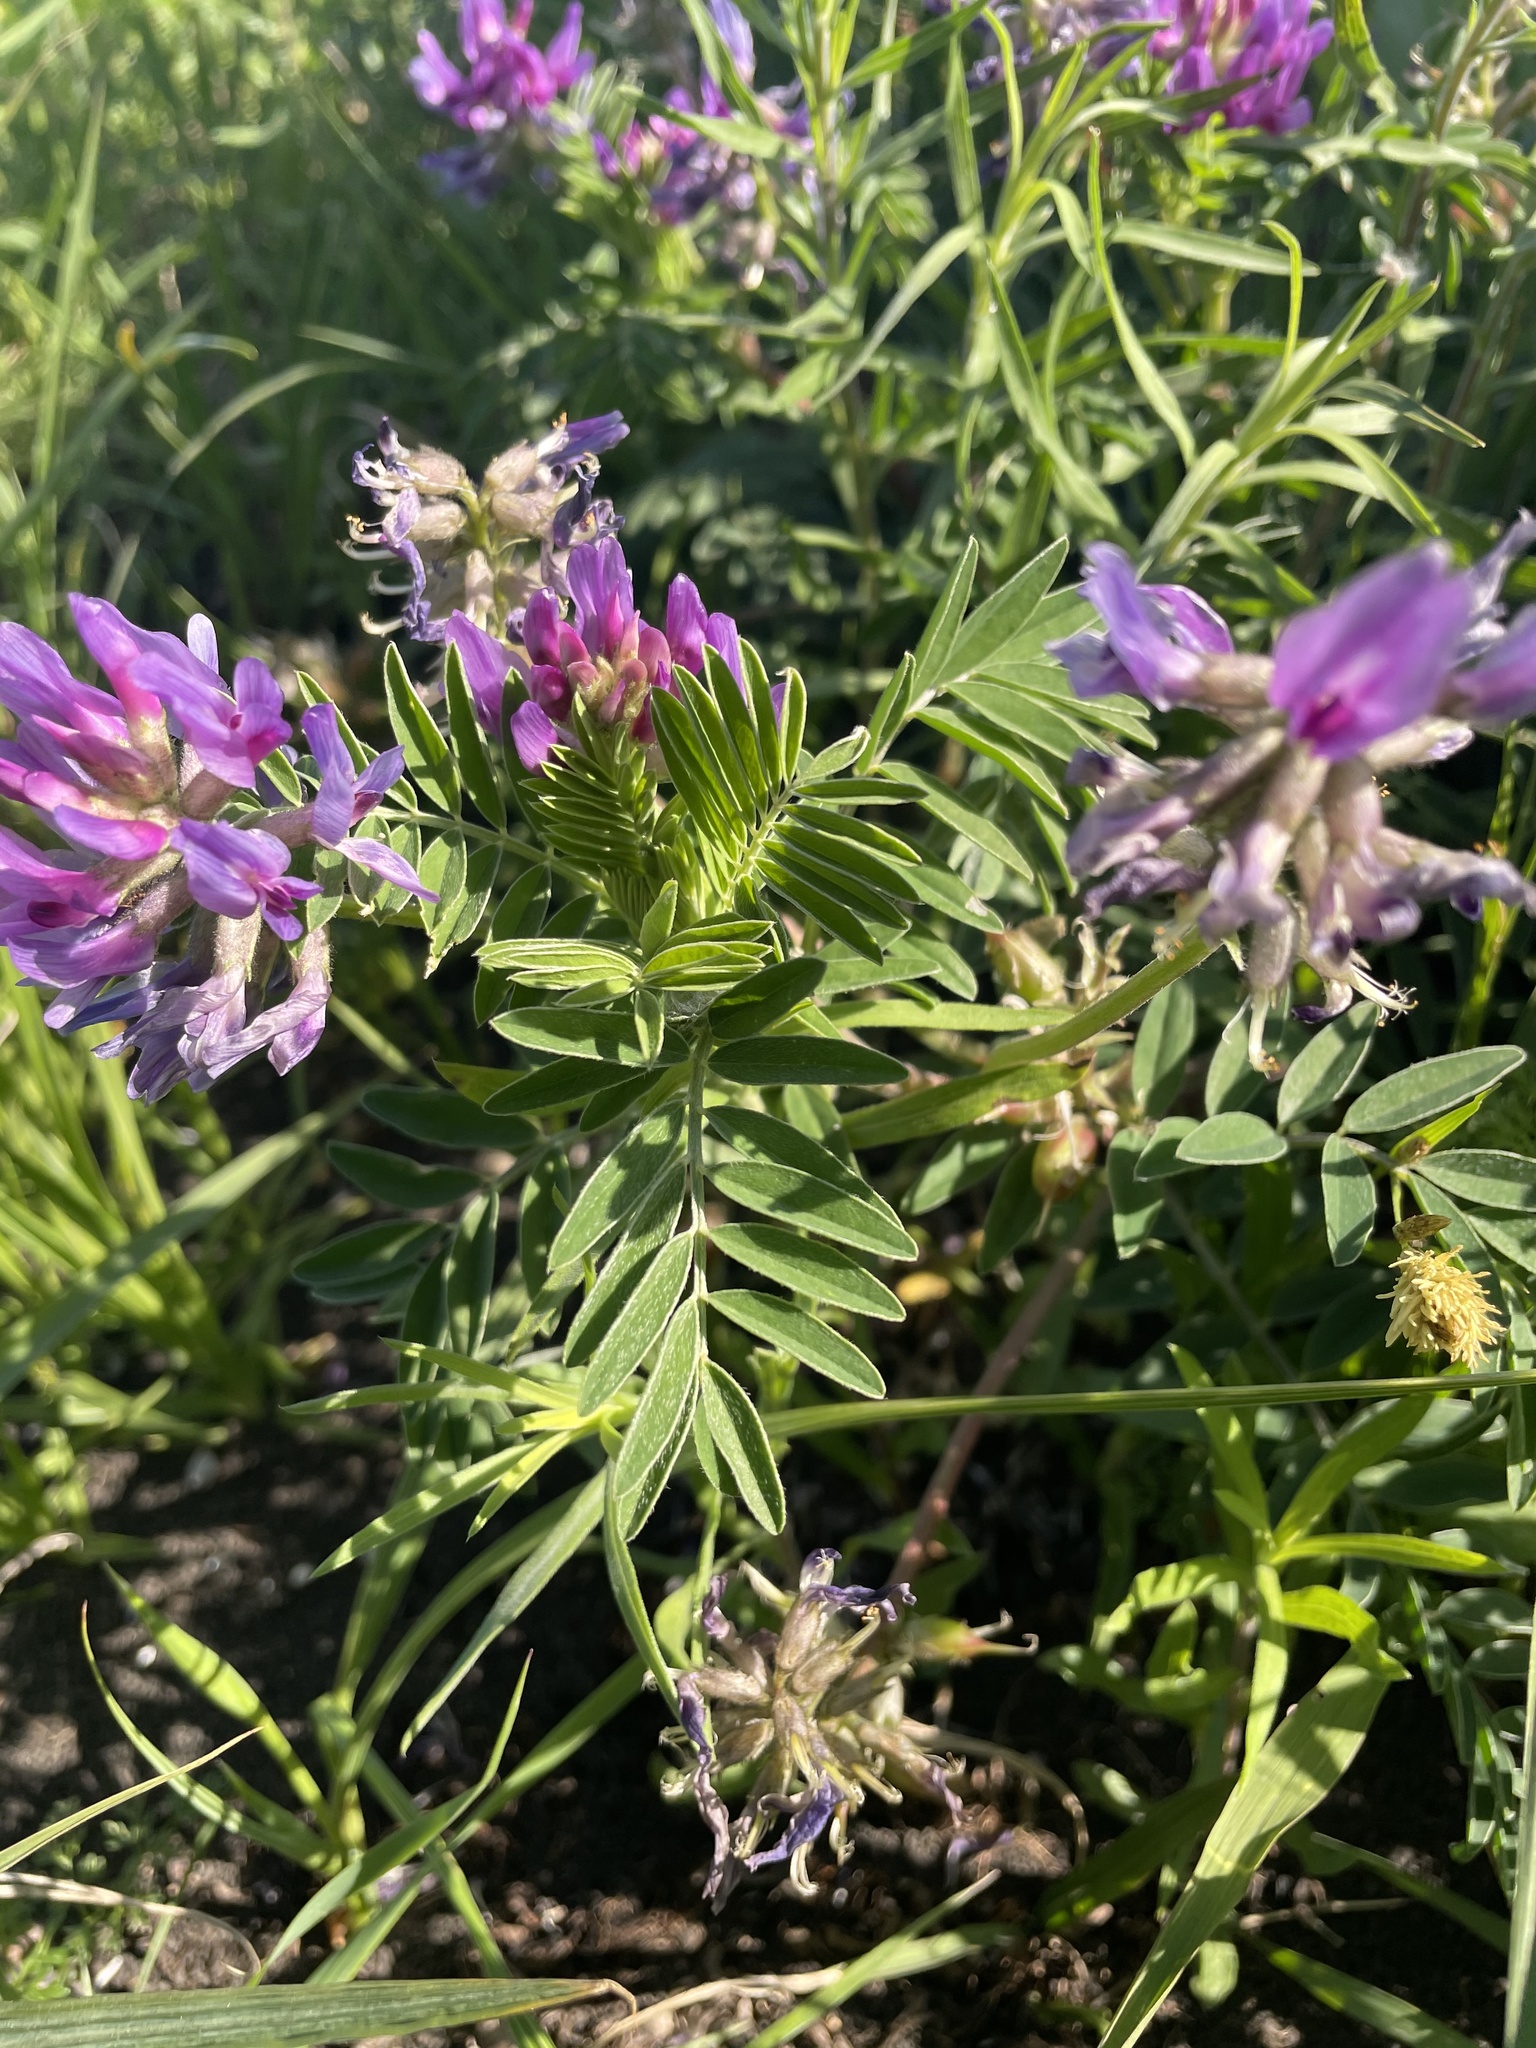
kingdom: Plantae
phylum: Tracheophyta
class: Magnoliopsida
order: Fabales
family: Fabaceae
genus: Astragalus
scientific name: Astragalus crassicarpus
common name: Ground-plum milk-vetch
